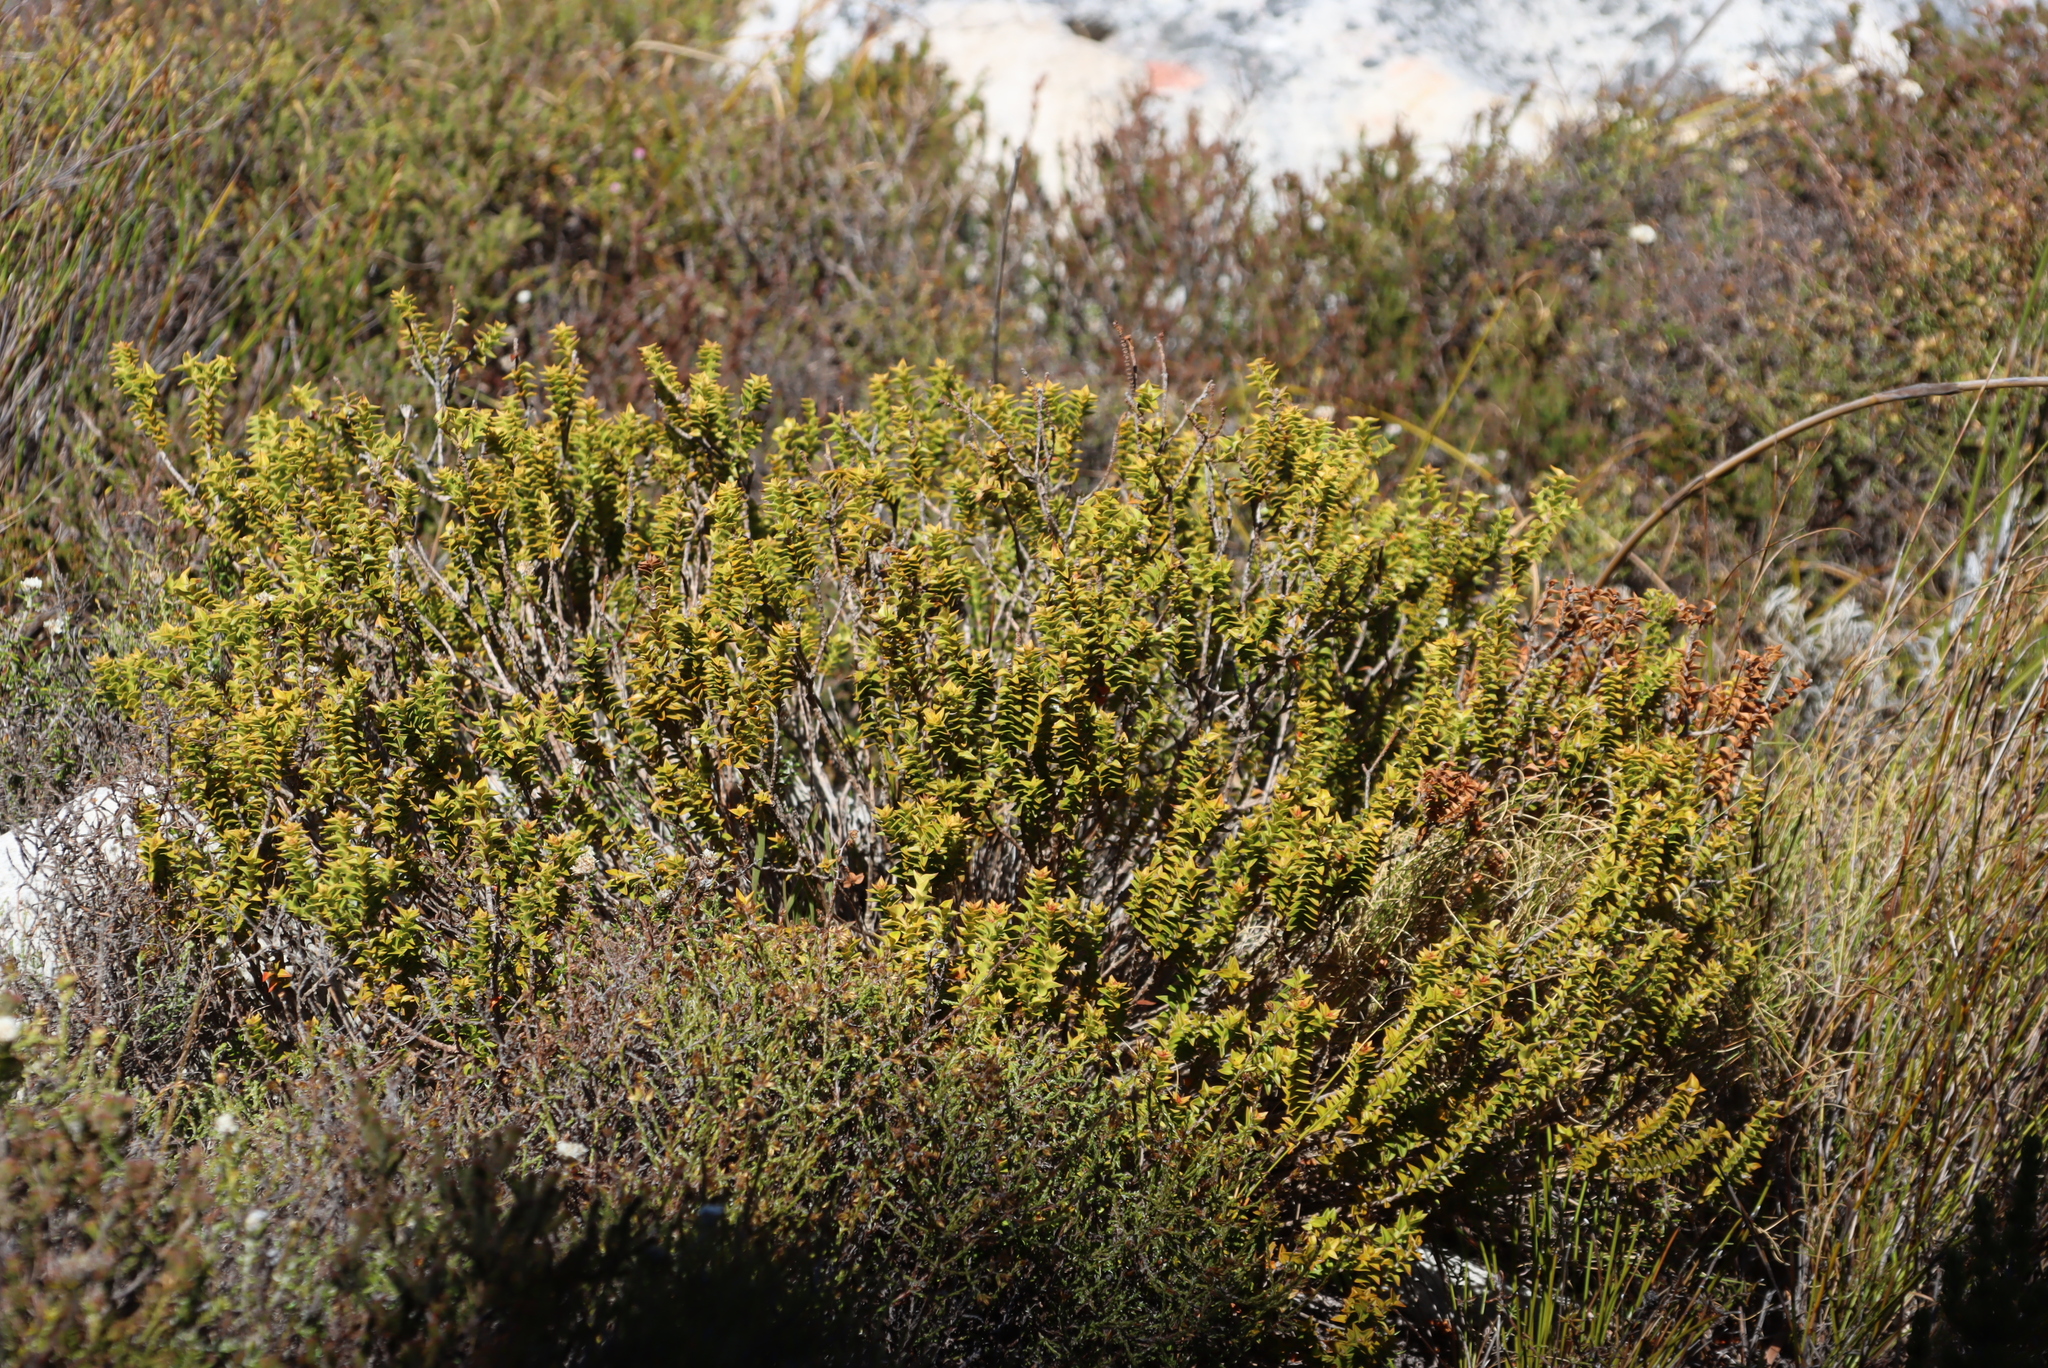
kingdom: Plantae
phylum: Tracheophyta
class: Magnoliopsida
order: Myrtales
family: Penaeaceae
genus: Penaea
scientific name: Penaea mucronata
